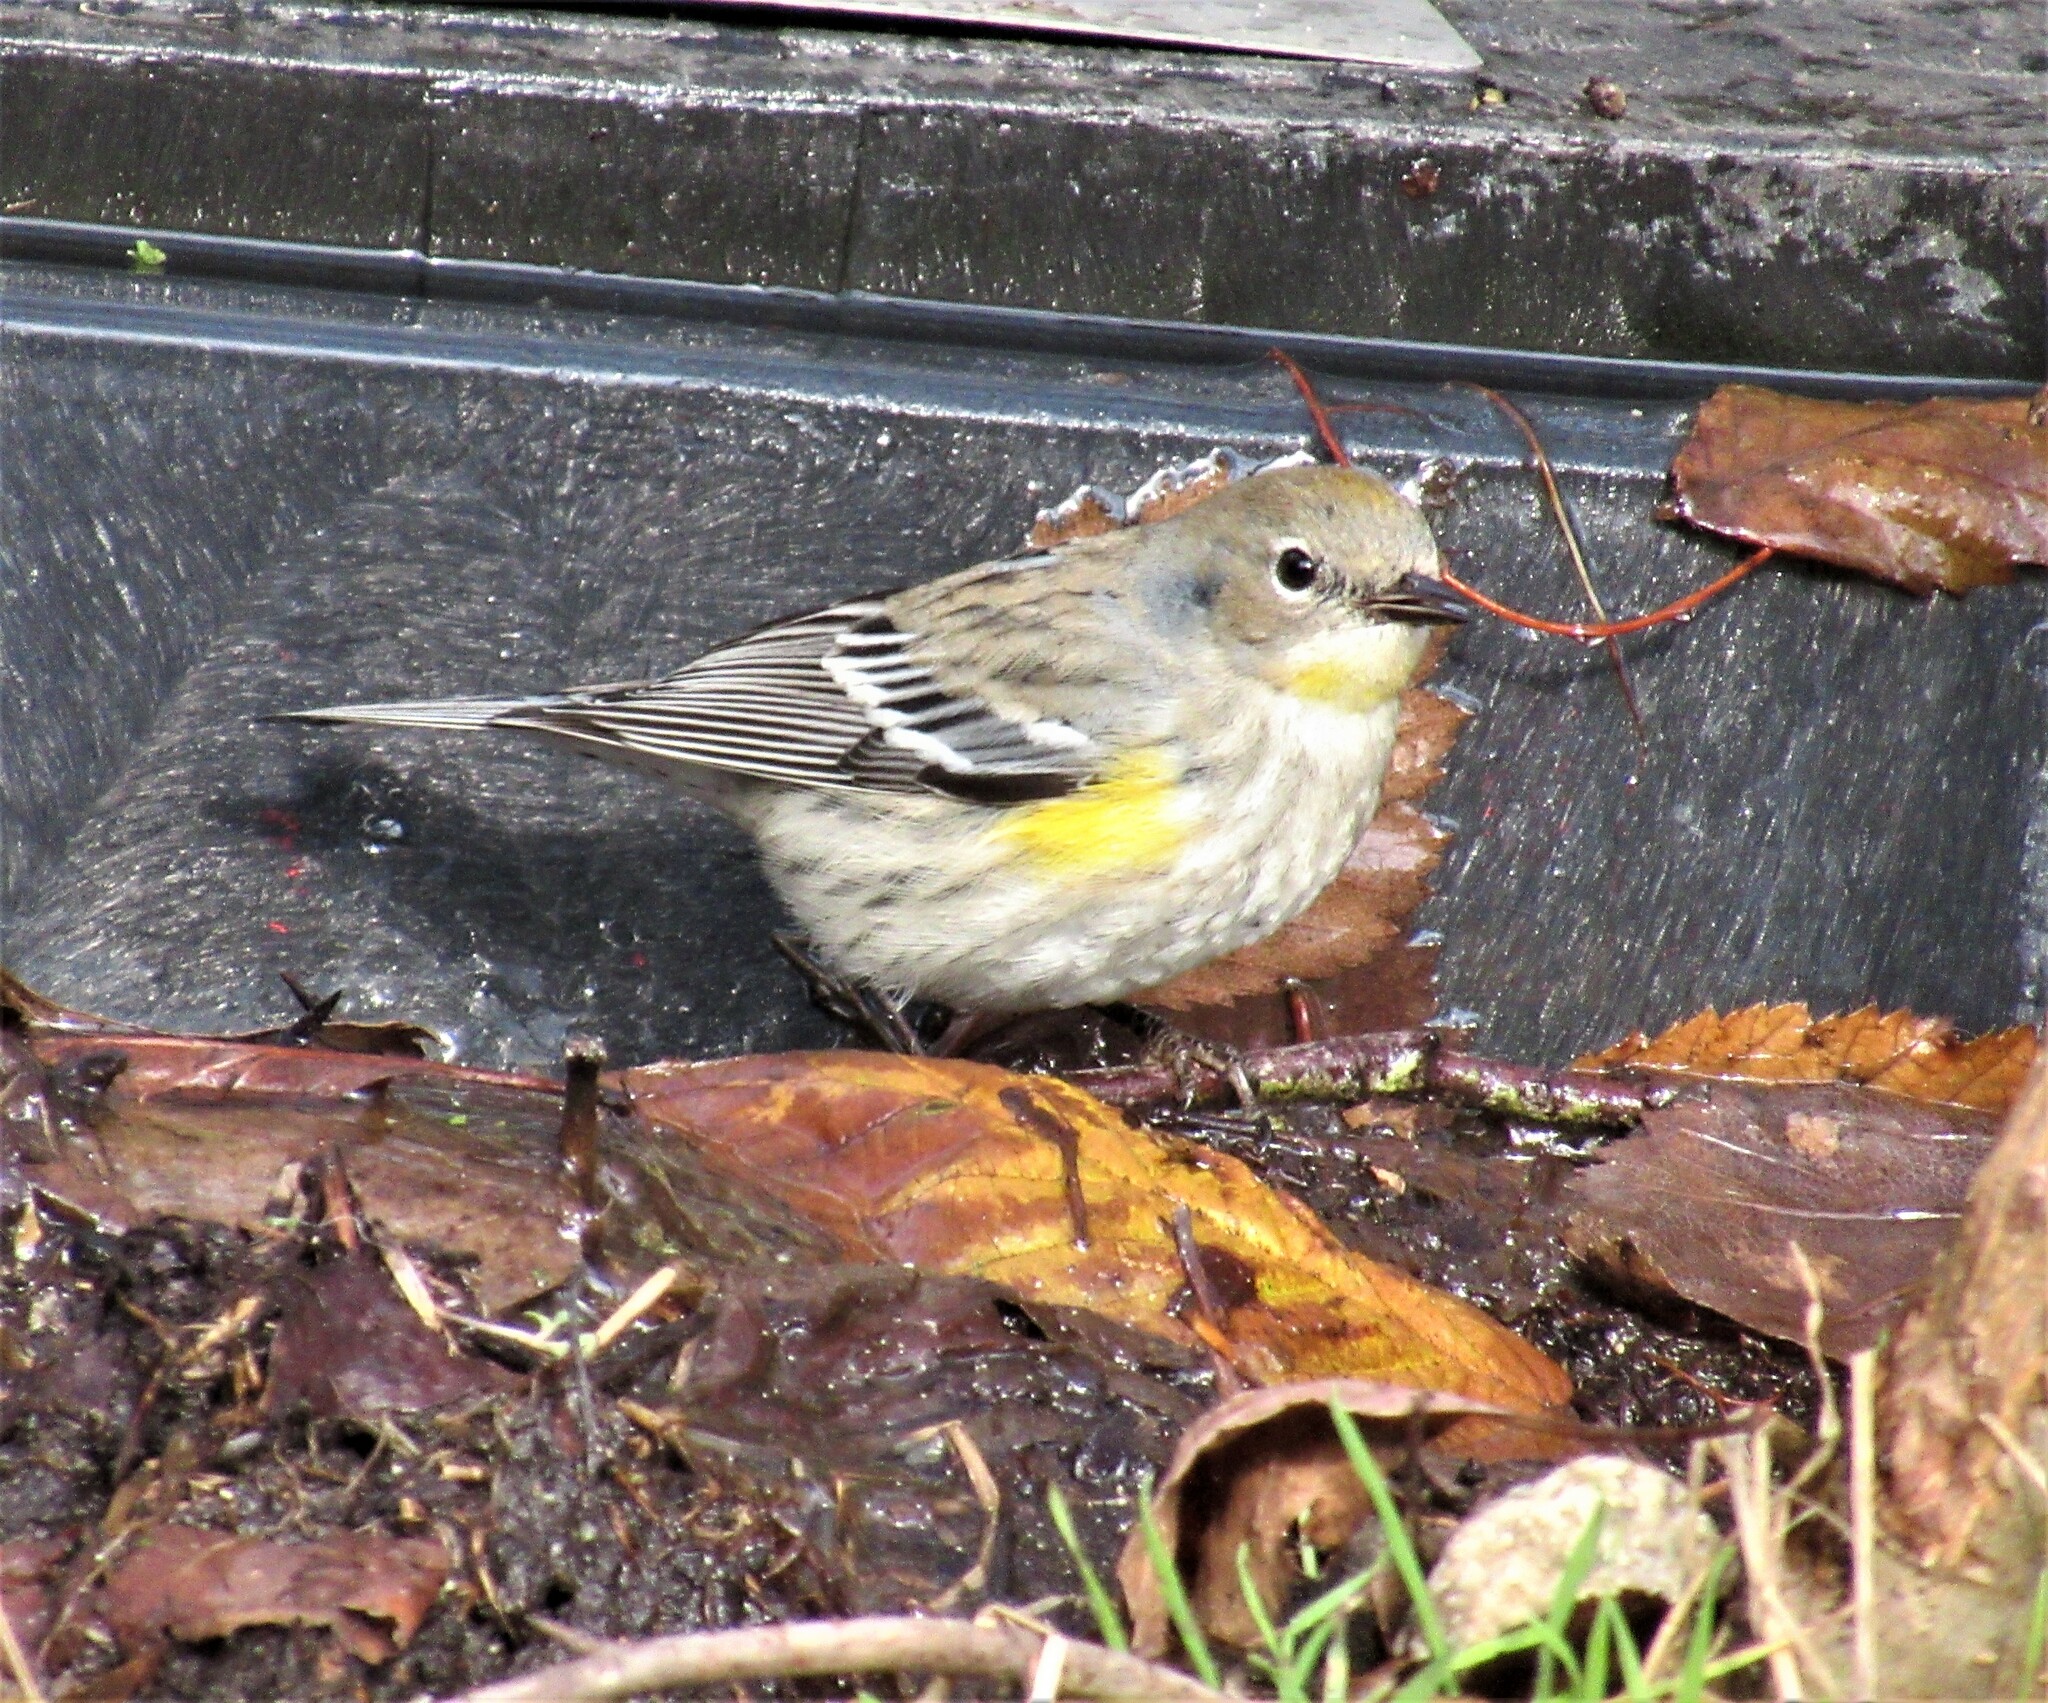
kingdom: Animalia
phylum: Chordata
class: Aves
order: Passeriformes
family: Parulidae
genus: Setophaga
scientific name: Setophaga coronata
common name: Myrtle warbler
